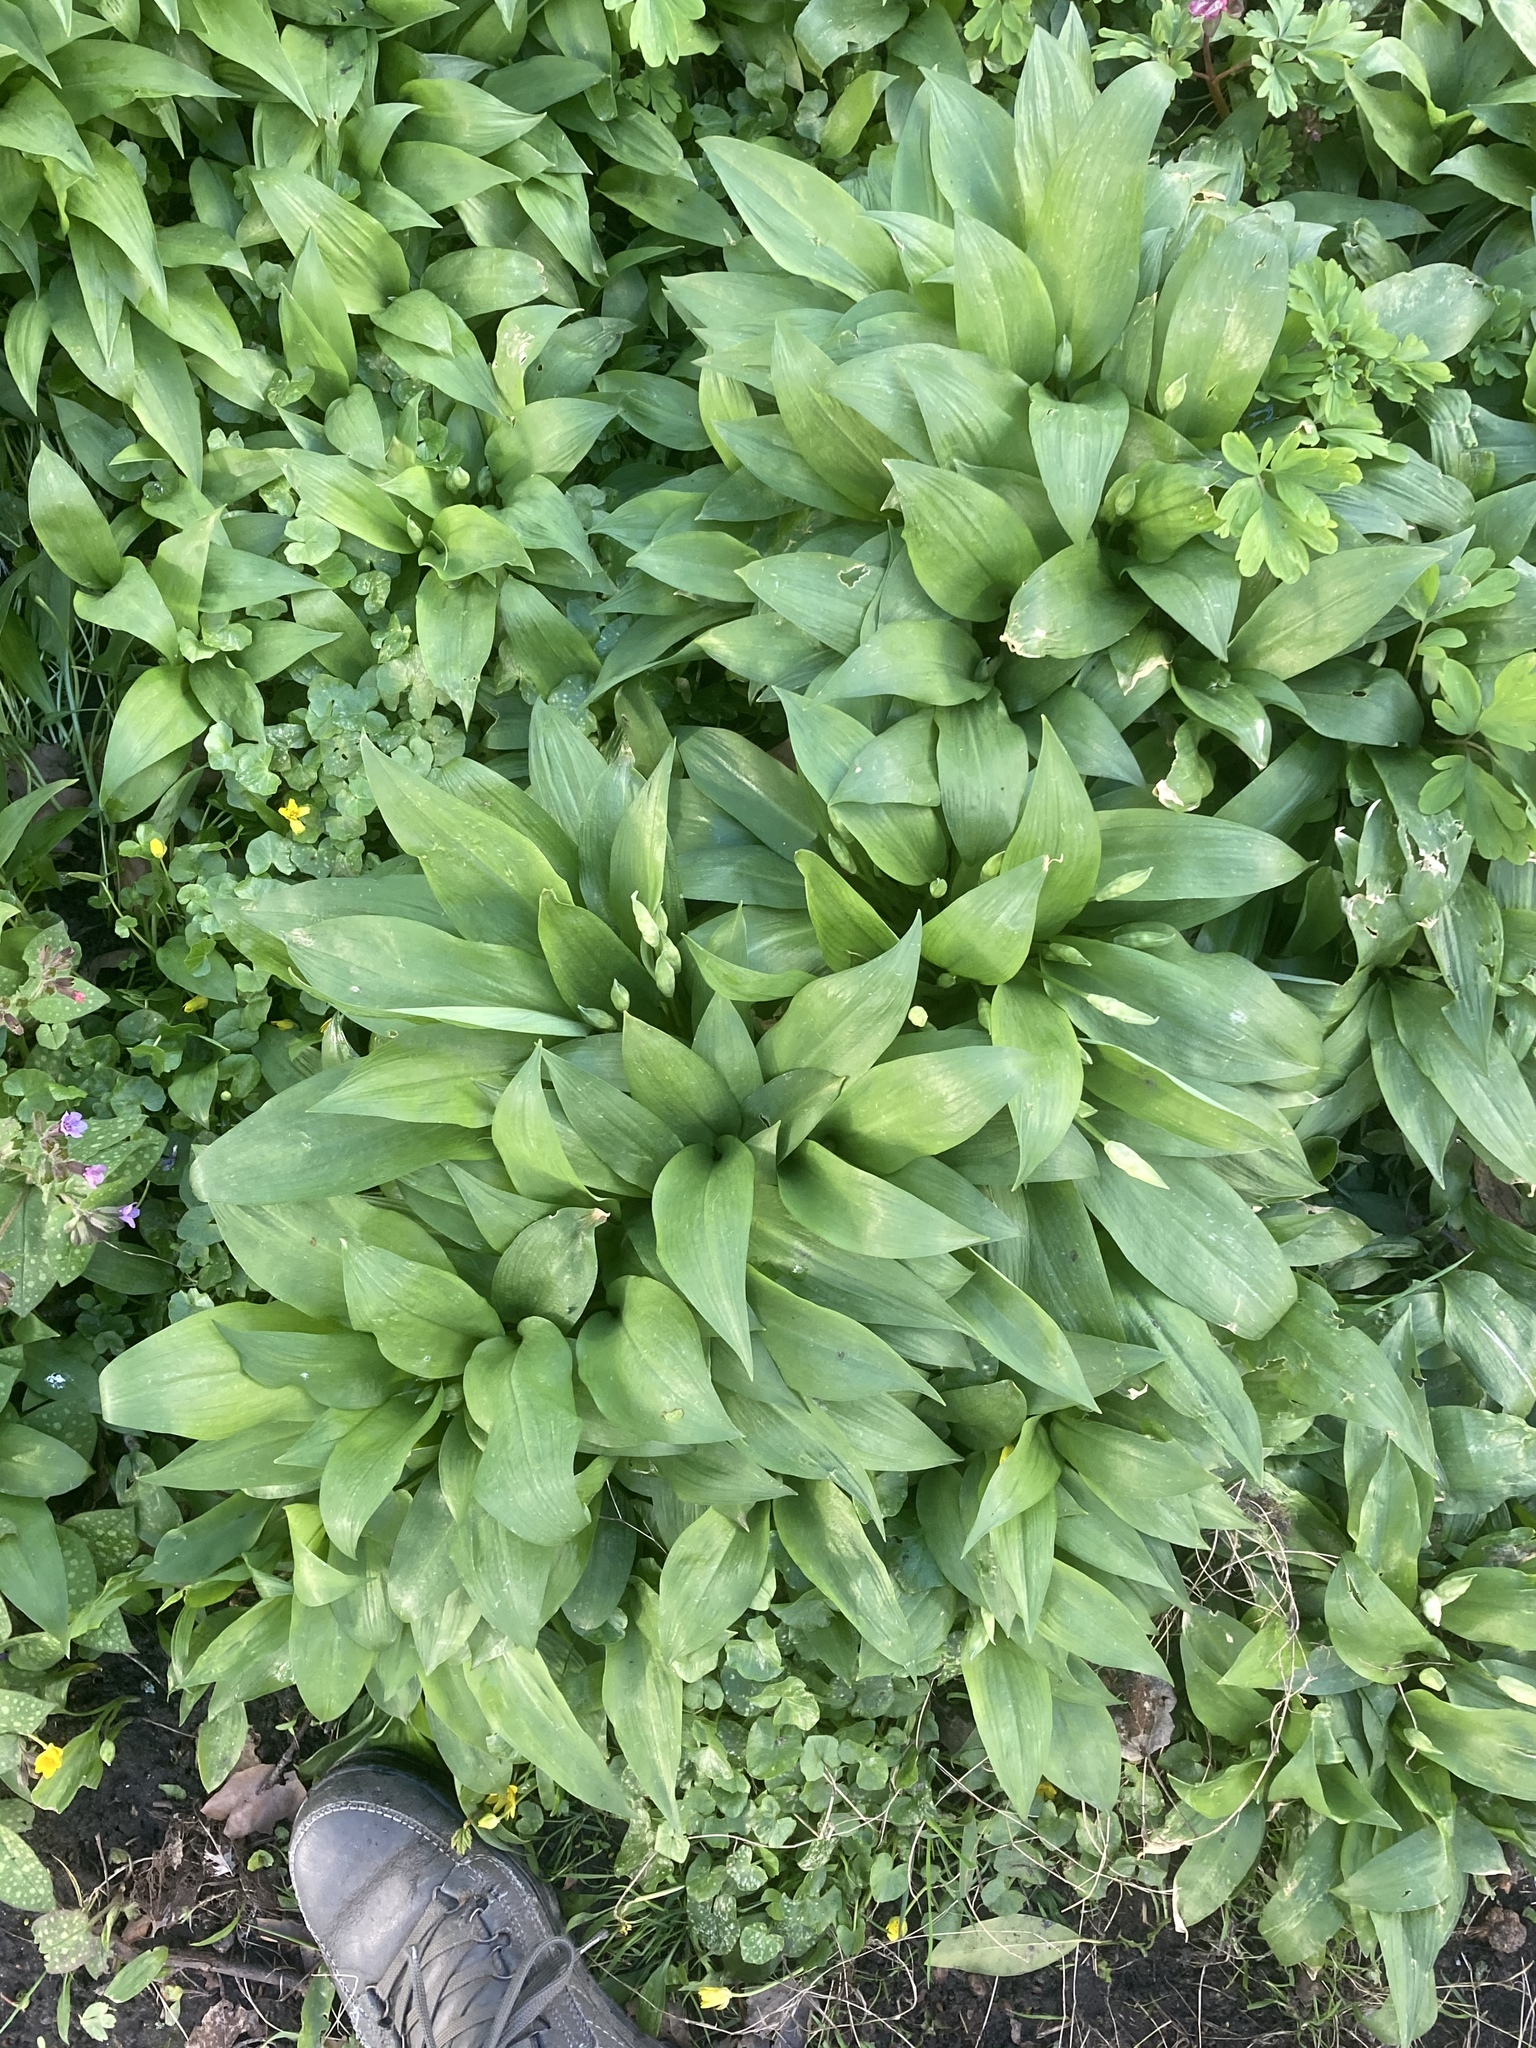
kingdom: Plantae
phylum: Tracheophyta
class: Liliopsida
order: Asparagales
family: Amaryllidaceae
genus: Allium
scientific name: Allium ursinum
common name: Ramsons
